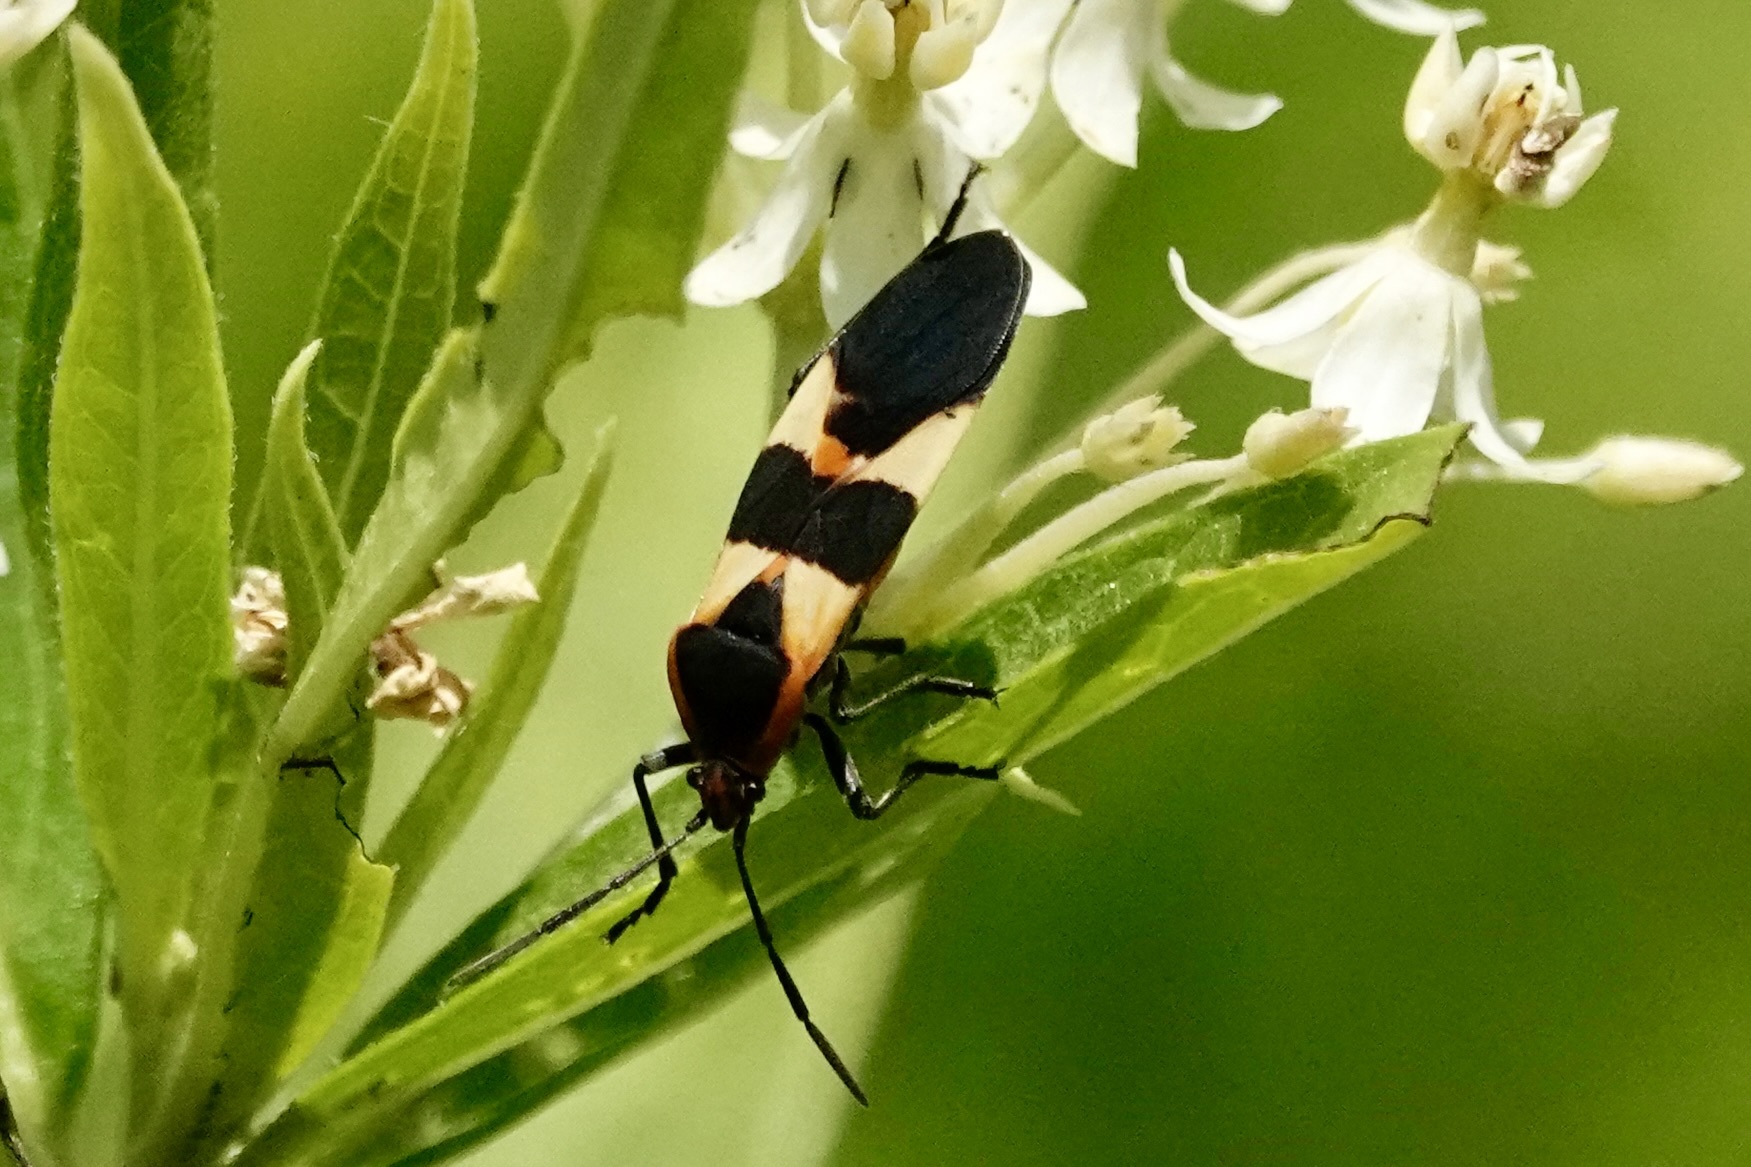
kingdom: Animalia
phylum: Arthropoda
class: Insecta
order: Hemiptera
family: Lygaeidae
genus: Oncopeltus
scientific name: Oncopeltus fasciatus
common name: Large milkweed bug
